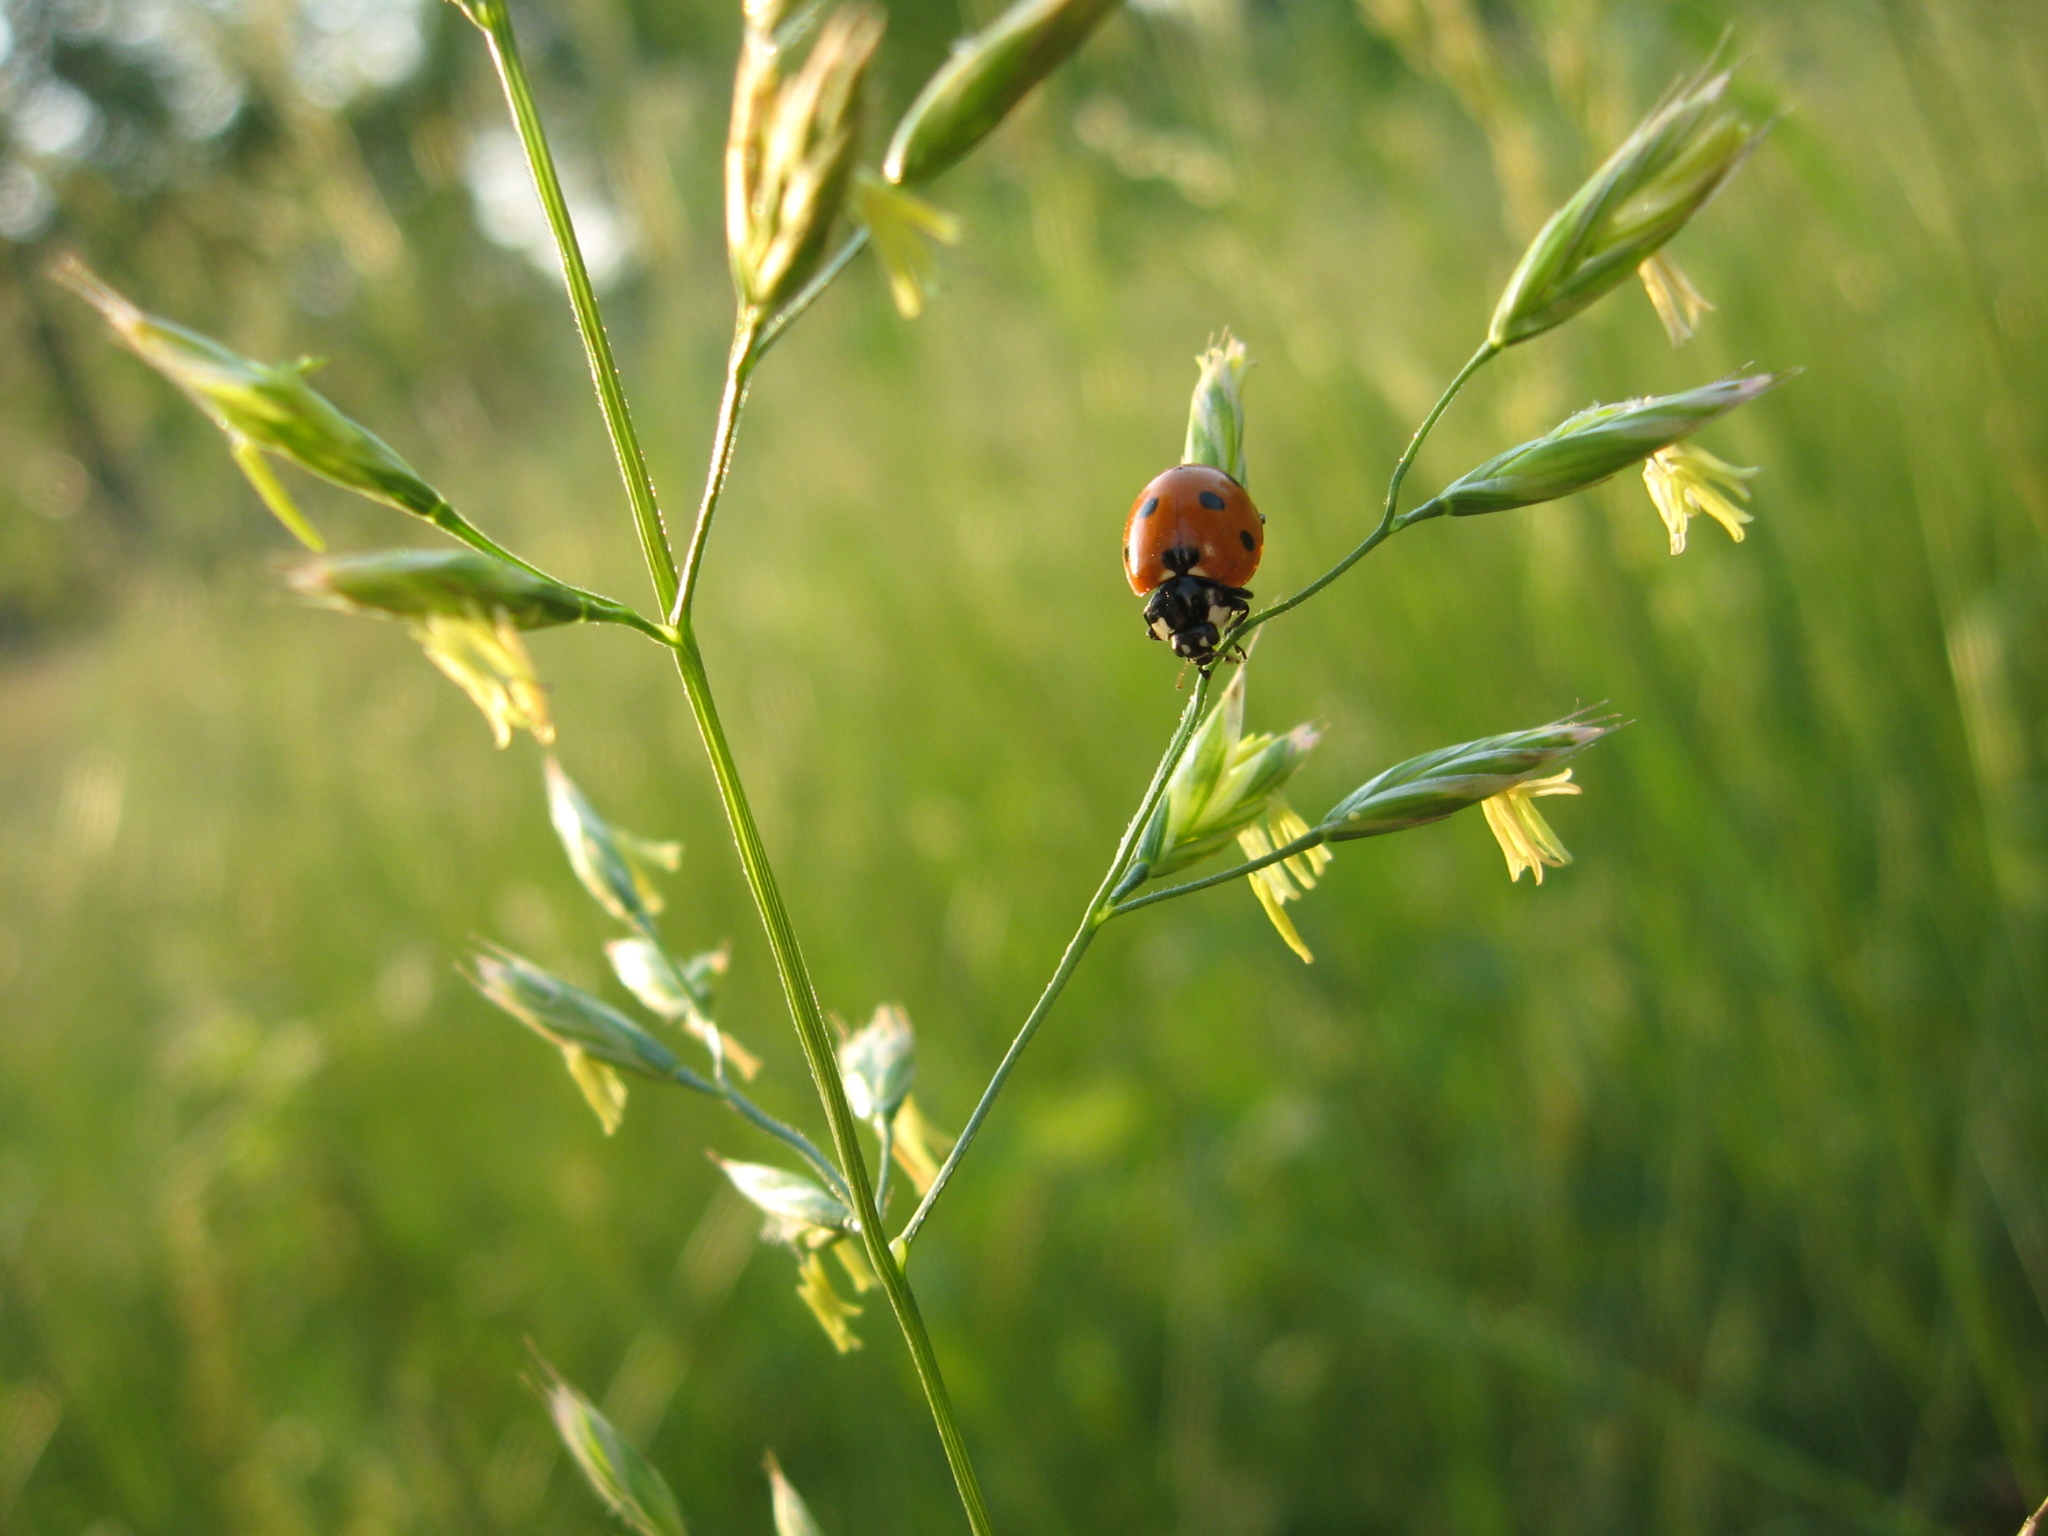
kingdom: Animalia
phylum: Arthropoda
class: Insecta
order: Coleoptera
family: Coccinellidae
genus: Coccinella
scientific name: Coccinella septempunctata
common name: Sevenspotted lady beetle
